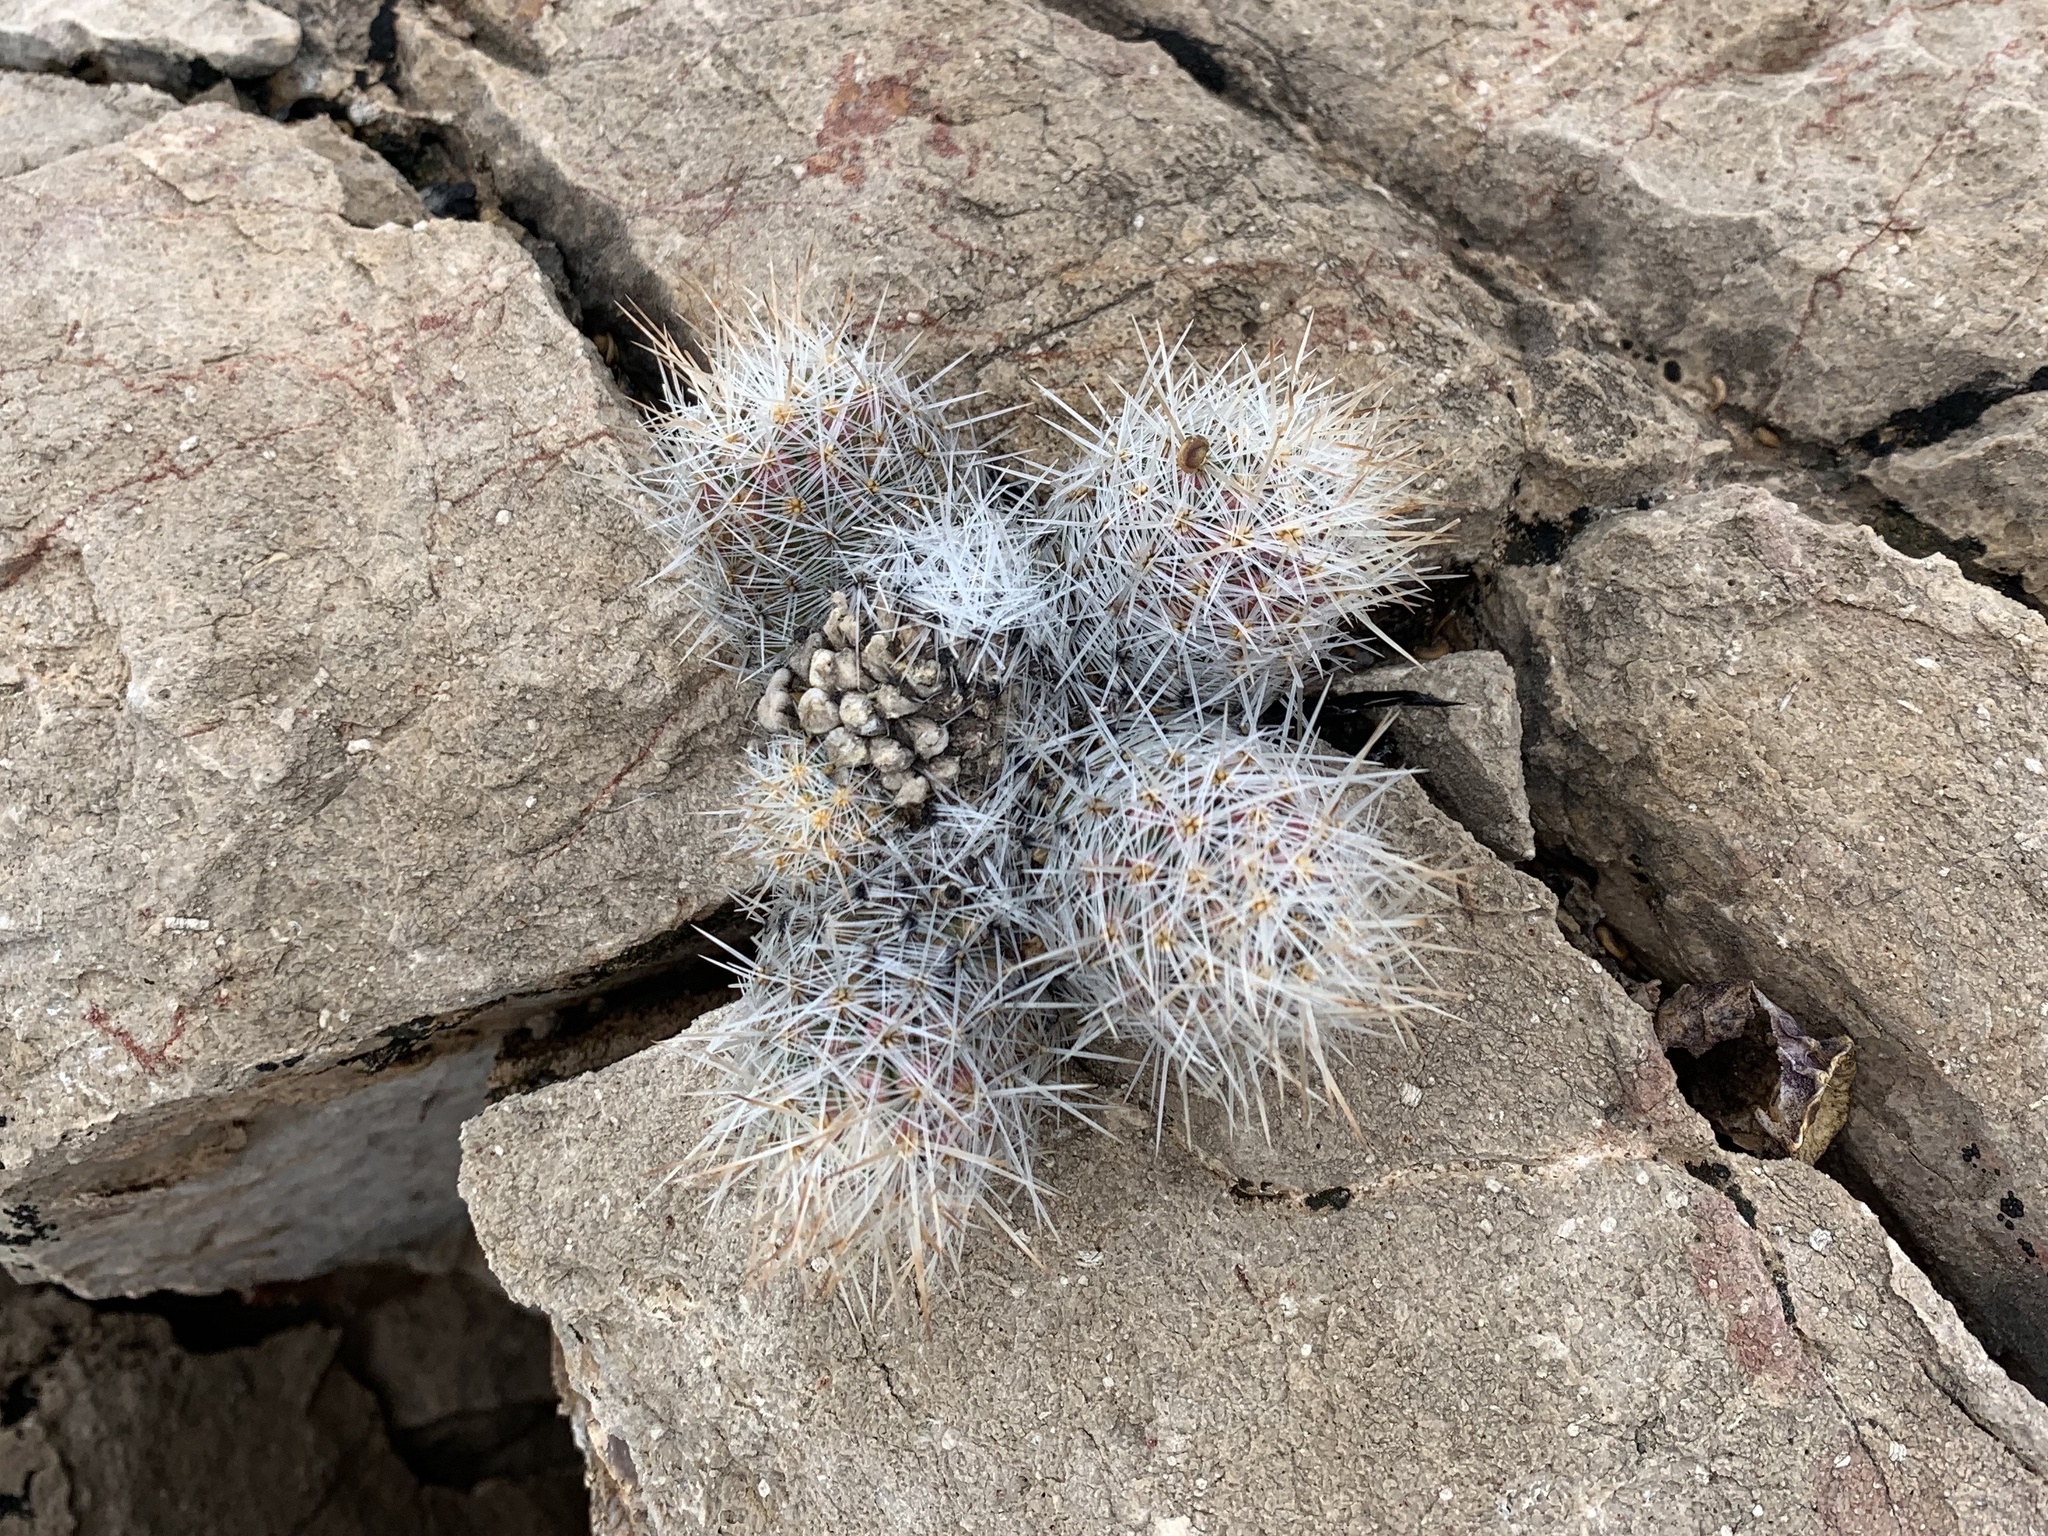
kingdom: Plantae
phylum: Tracheophyta
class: Magnoliopsida
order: Caryophyllales
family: Cactaceae
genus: Pelecyphora
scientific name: Pelecyphora tuberculosa
